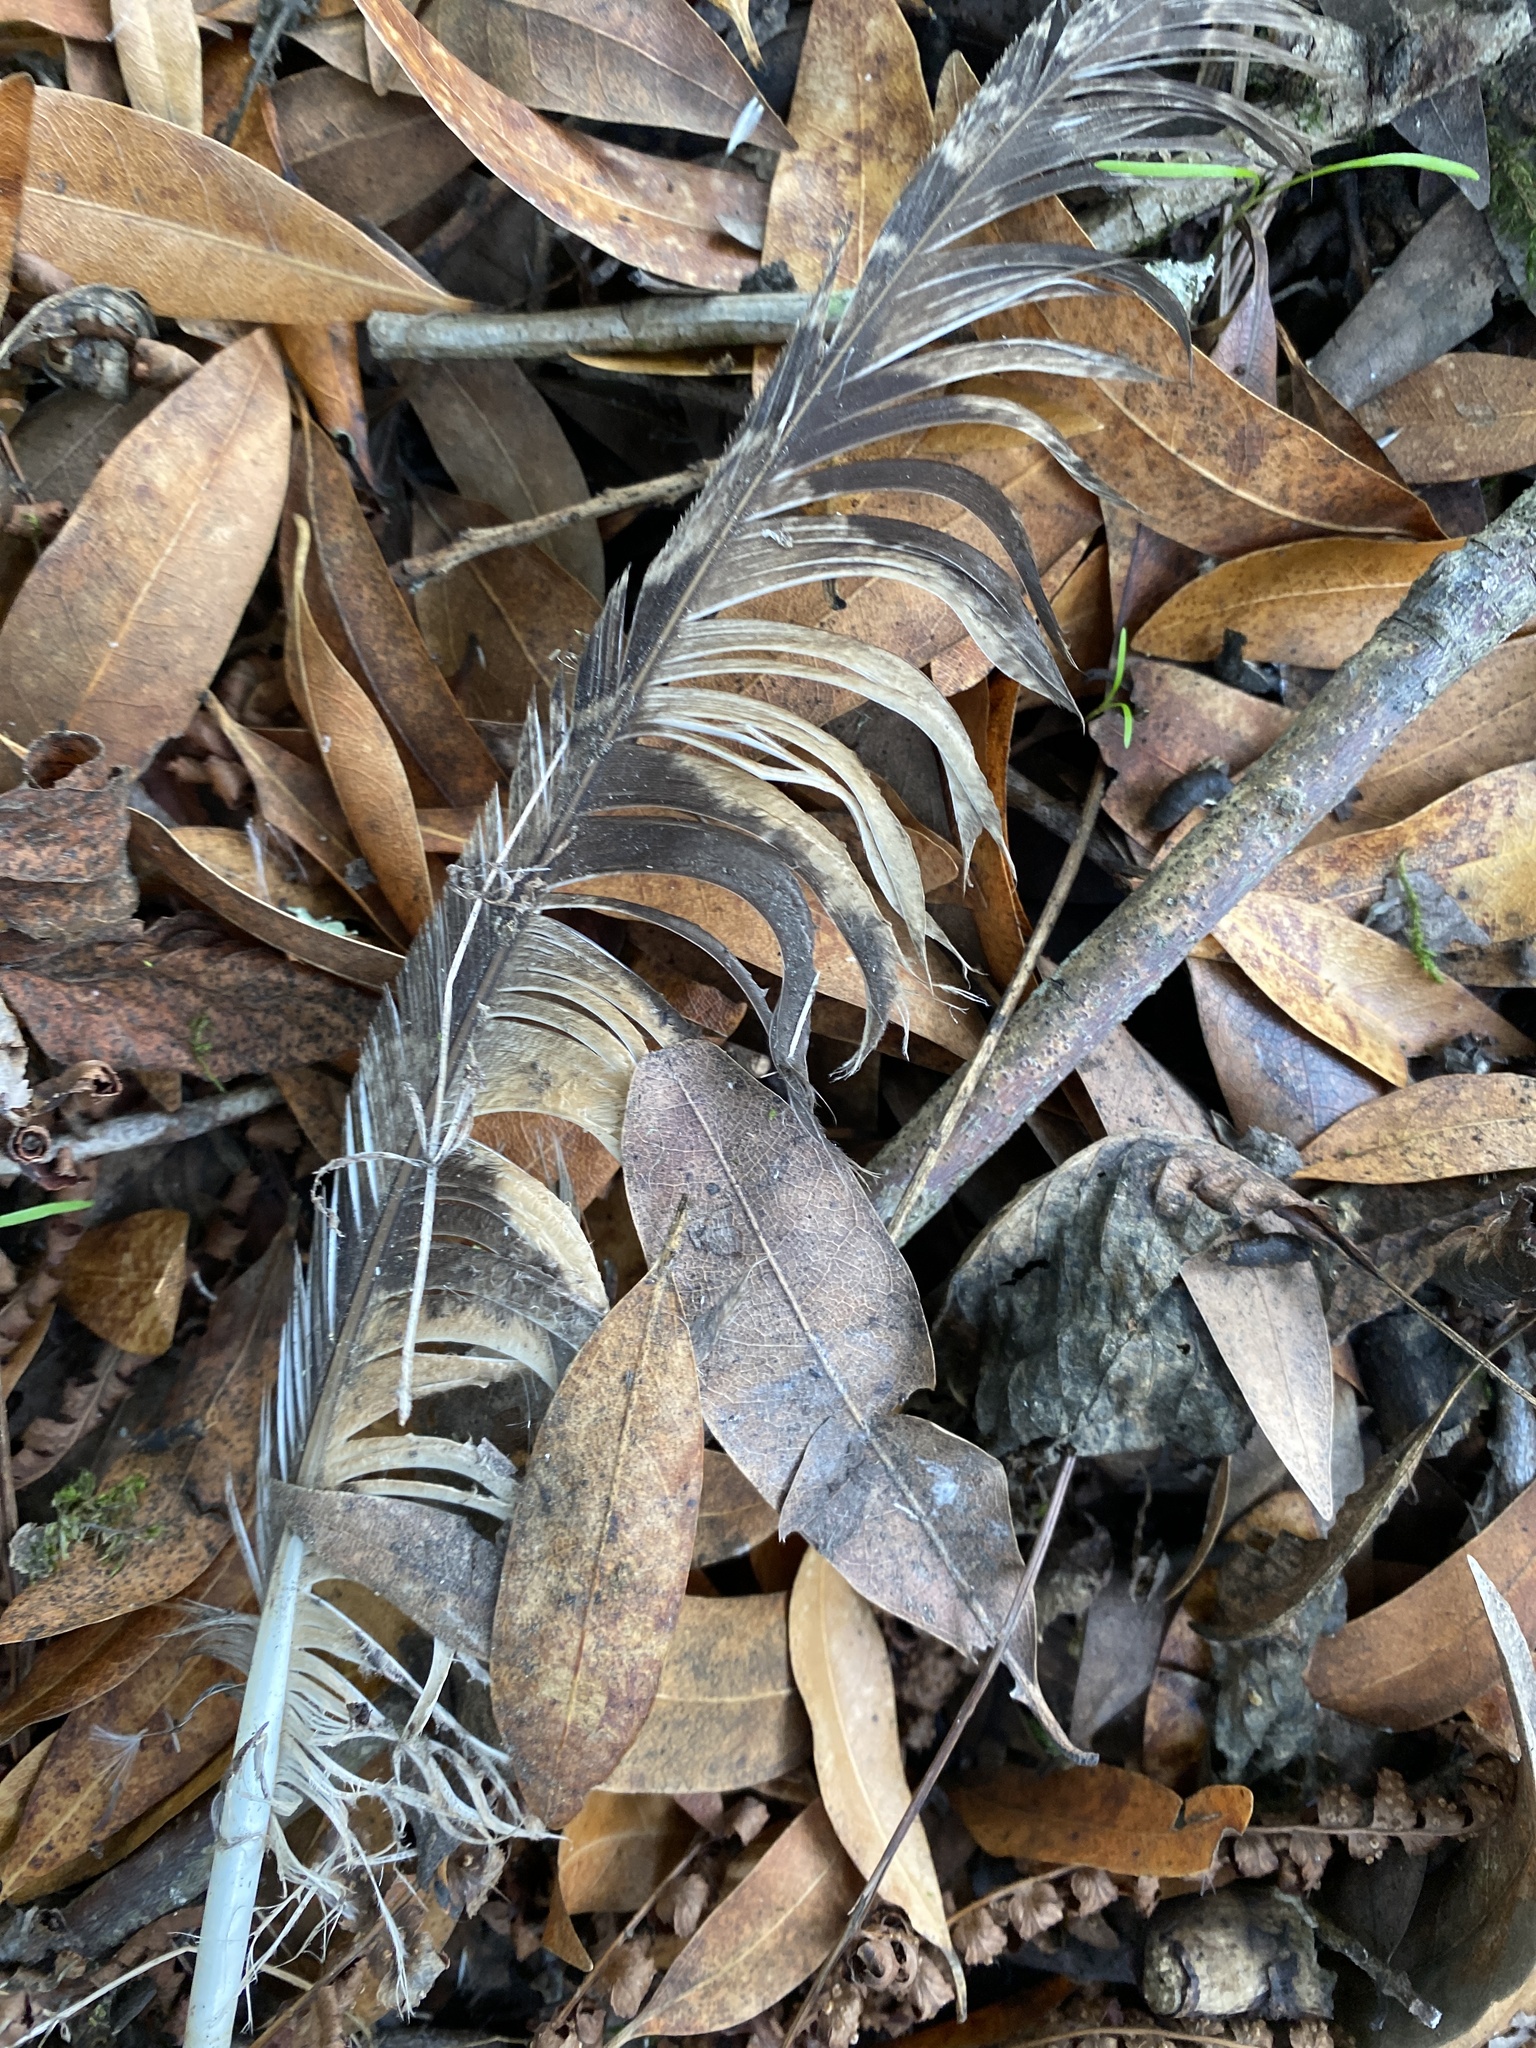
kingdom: Animalia
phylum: Chordata
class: Aves
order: Strigiformes
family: Strigidae
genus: Bubo
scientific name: Bubo virginianus
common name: Great horned owl
